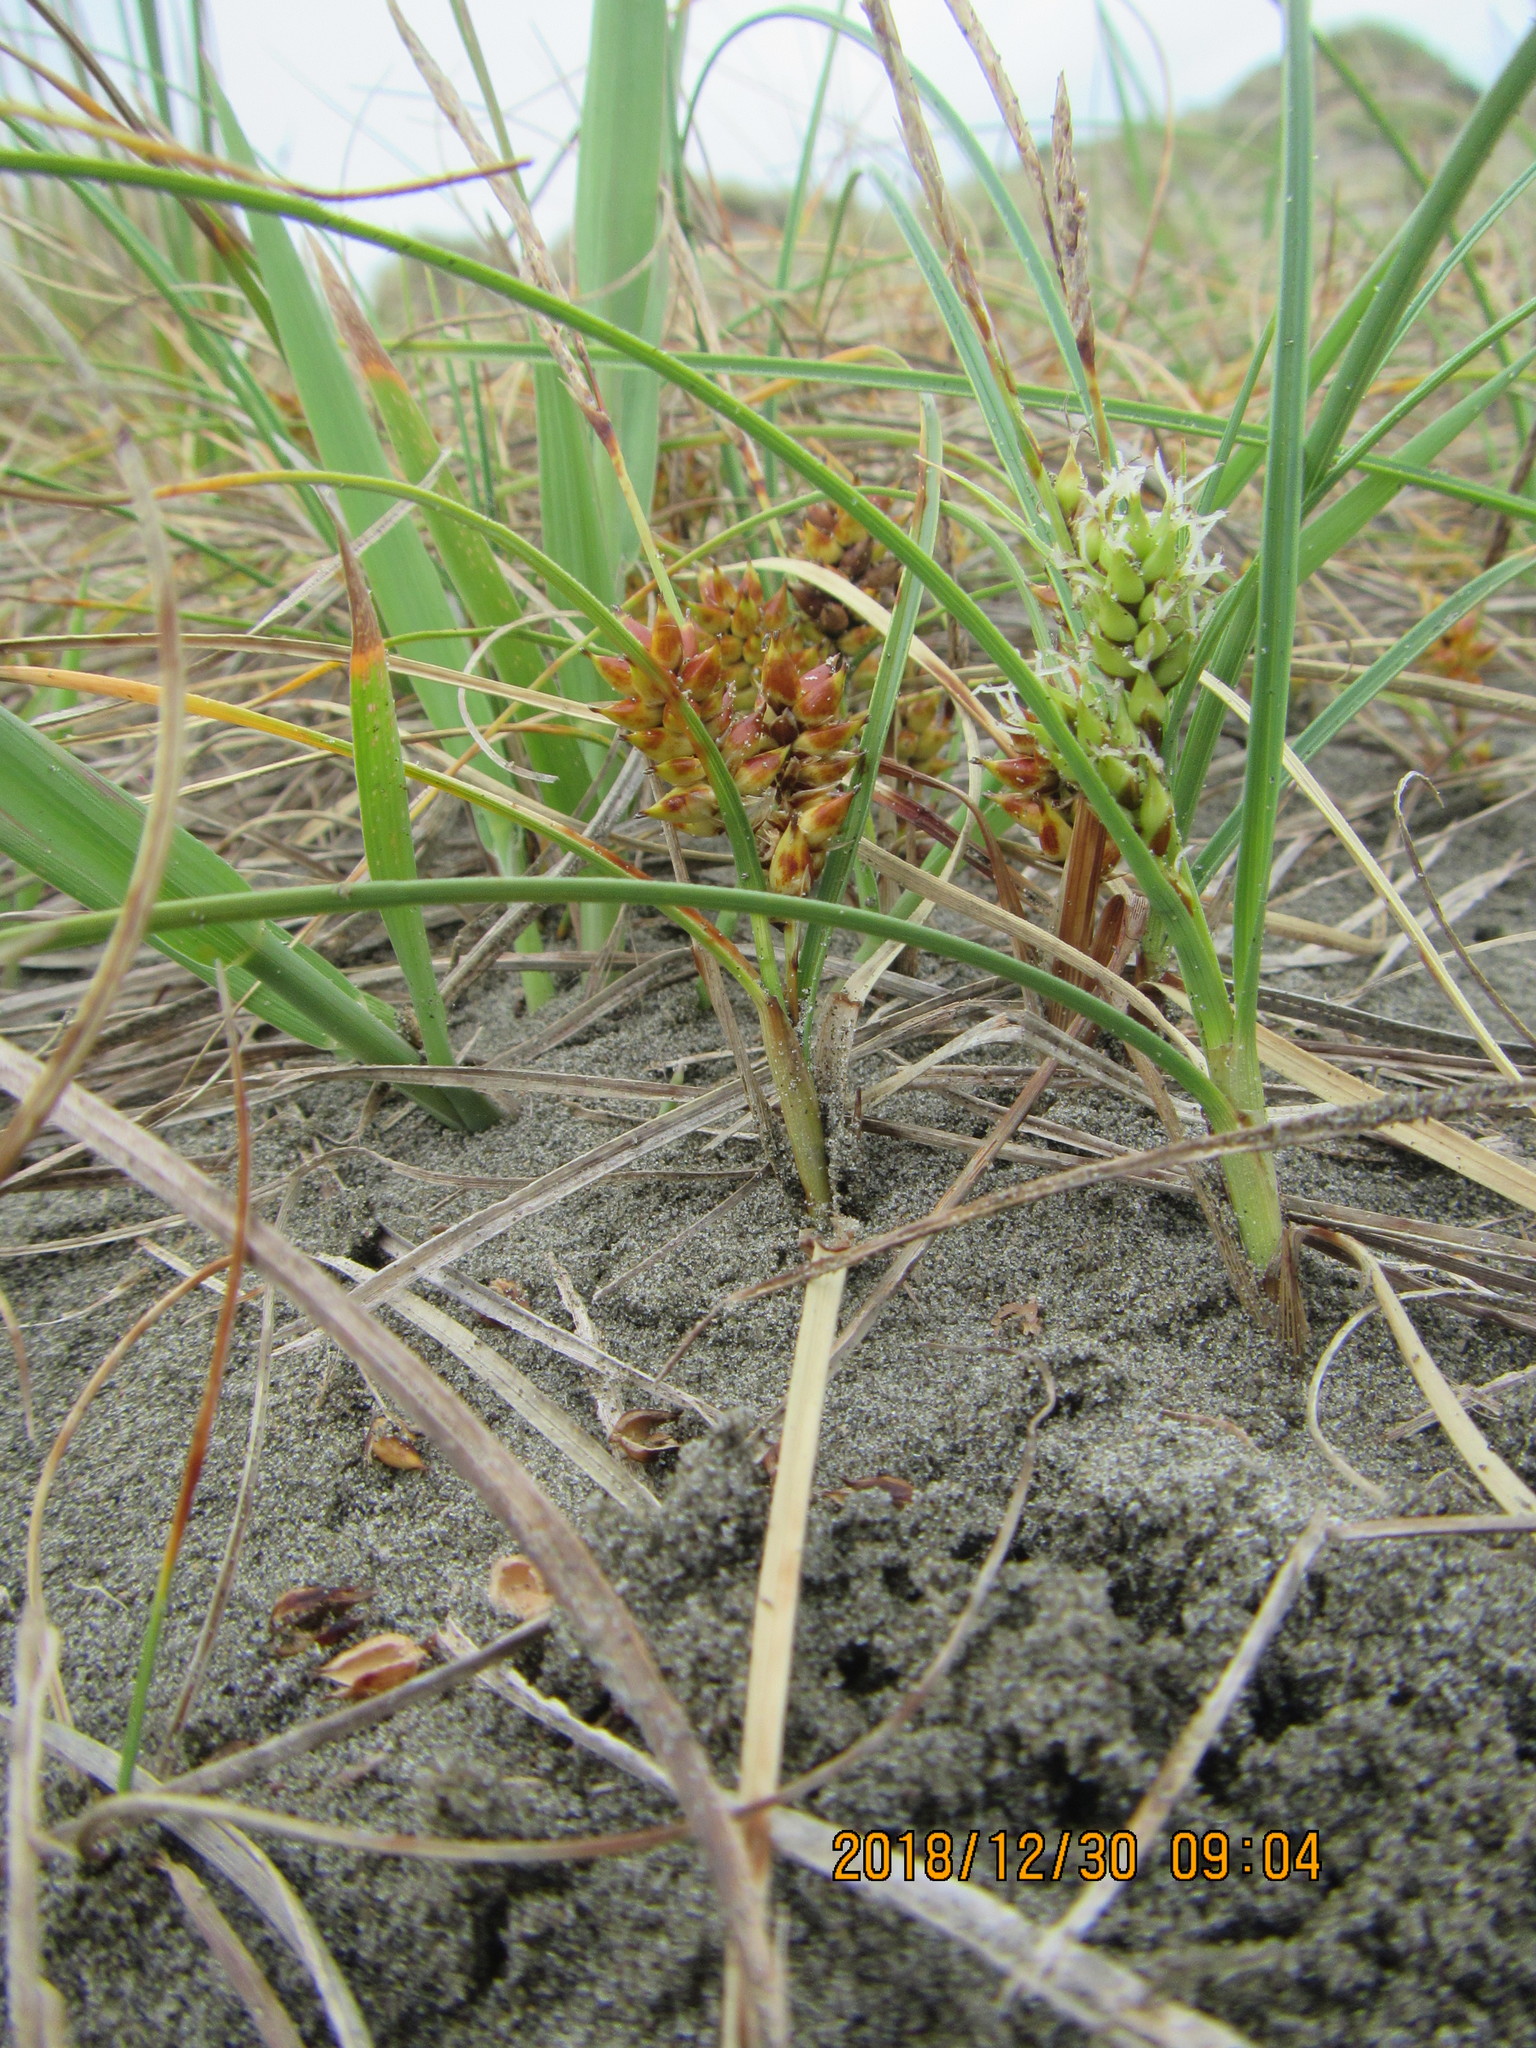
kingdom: Plantae
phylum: Tracheophyta
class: Liliopsida
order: Poales
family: Cyperaceae
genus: Carex
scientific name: Carex pumila
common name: Dwarf sedge
